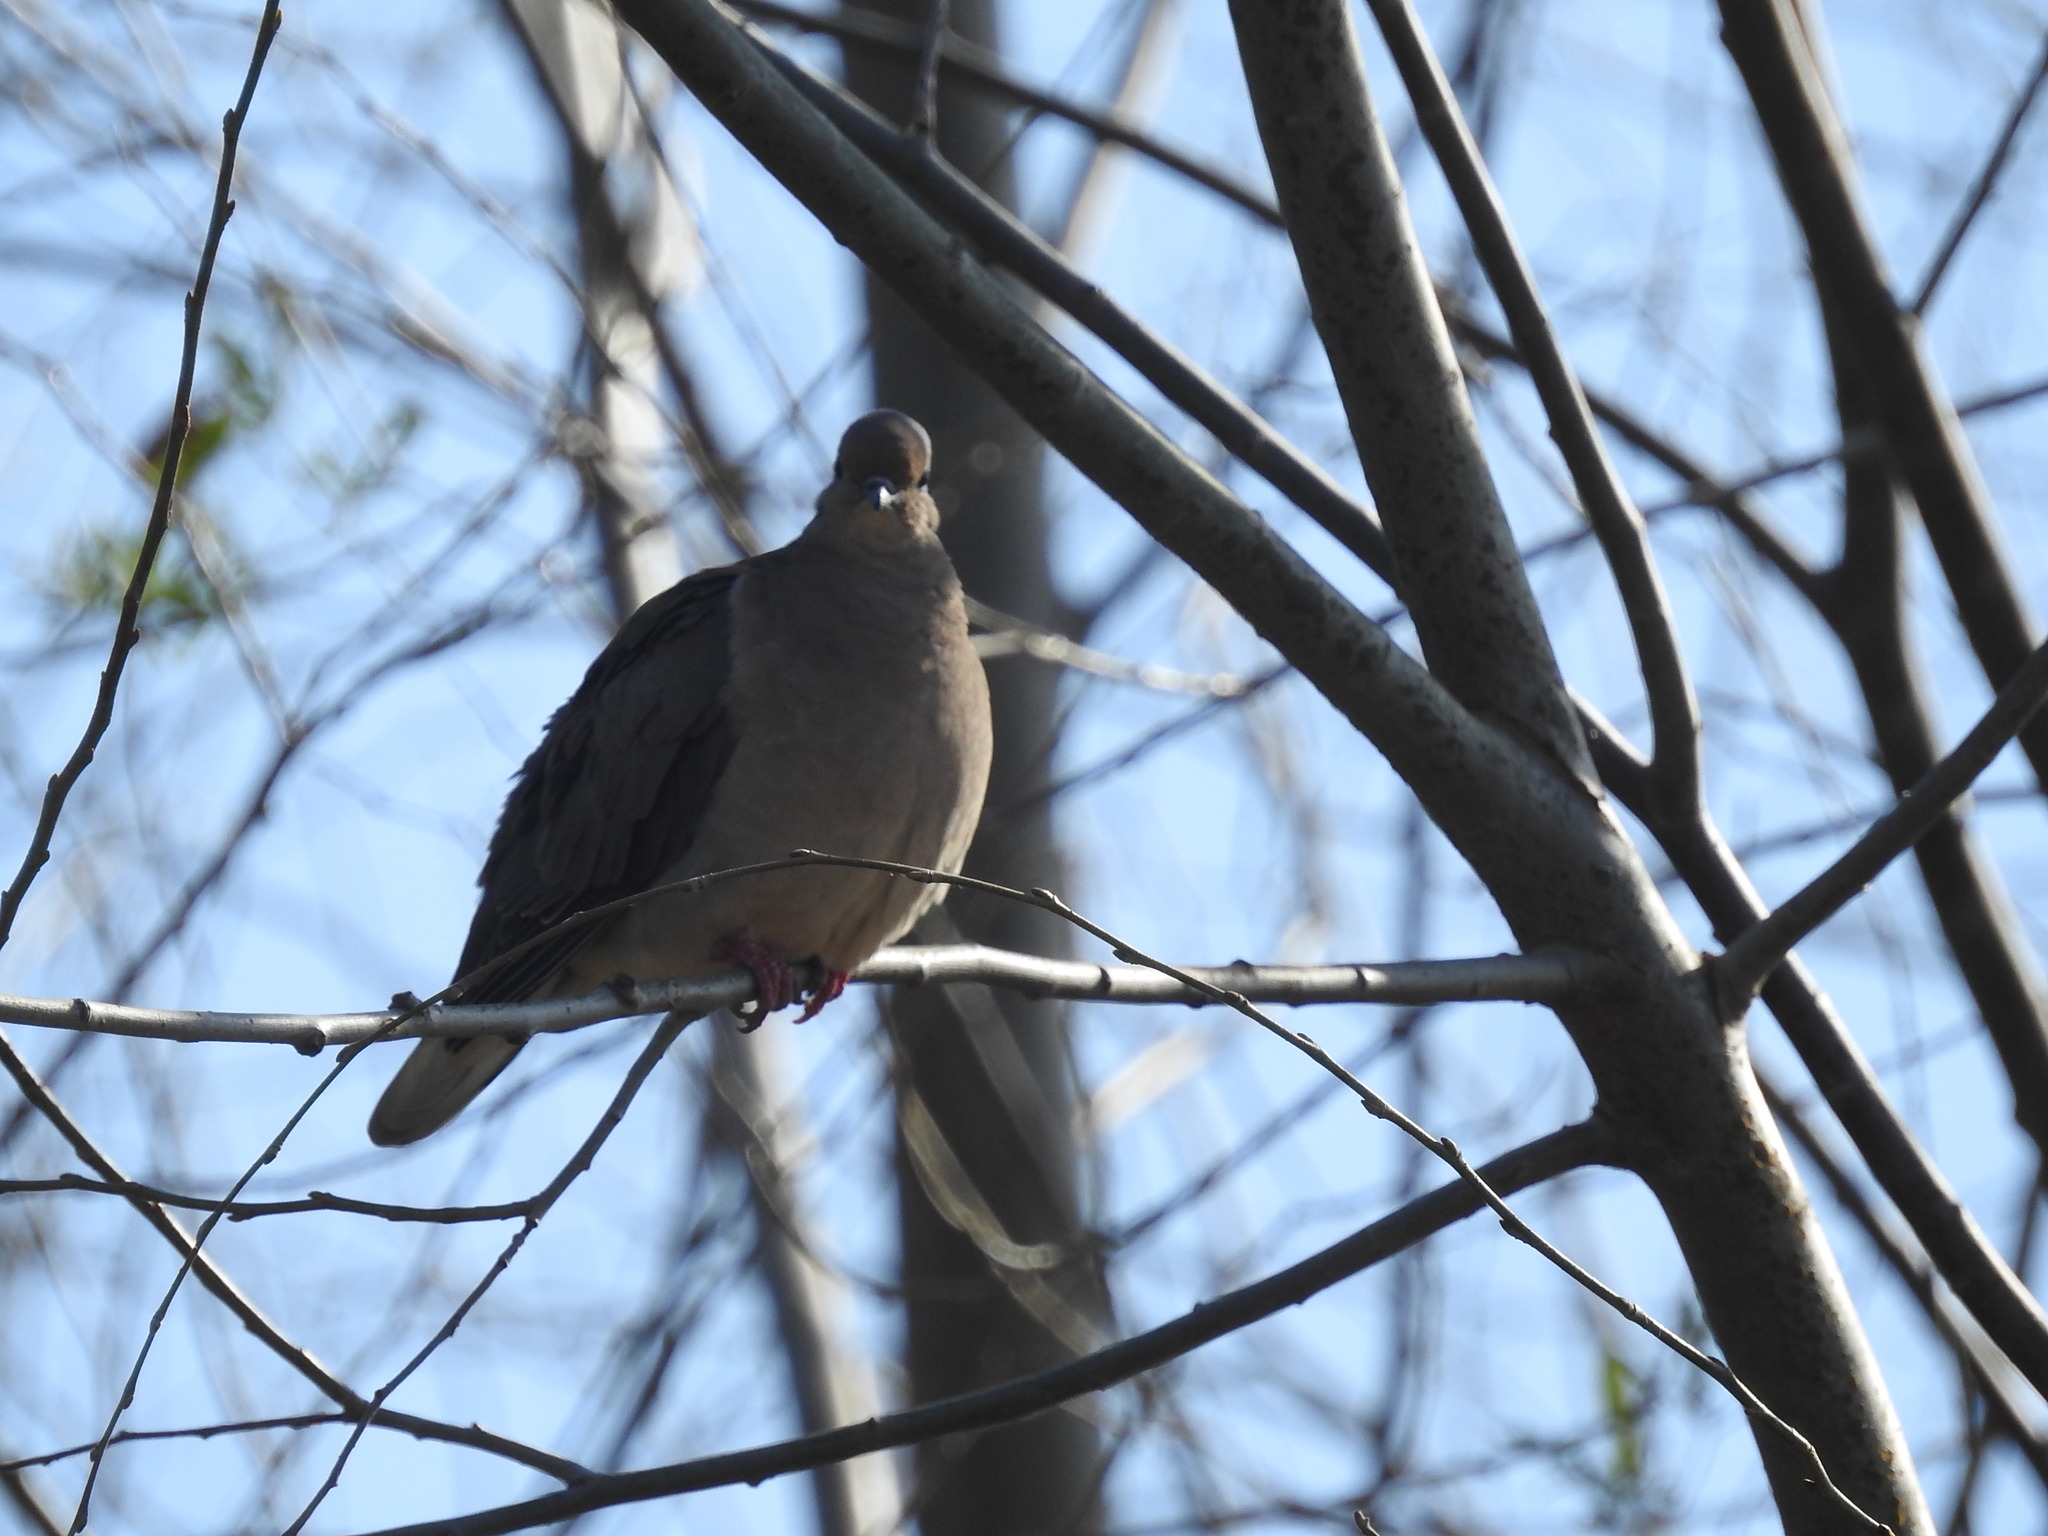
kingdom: Animalia
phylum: Chordata
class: Aves
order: Columbiformes
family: Columbidae
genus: Zenaida
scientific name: Zenaida auriculata
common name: Eared dove
